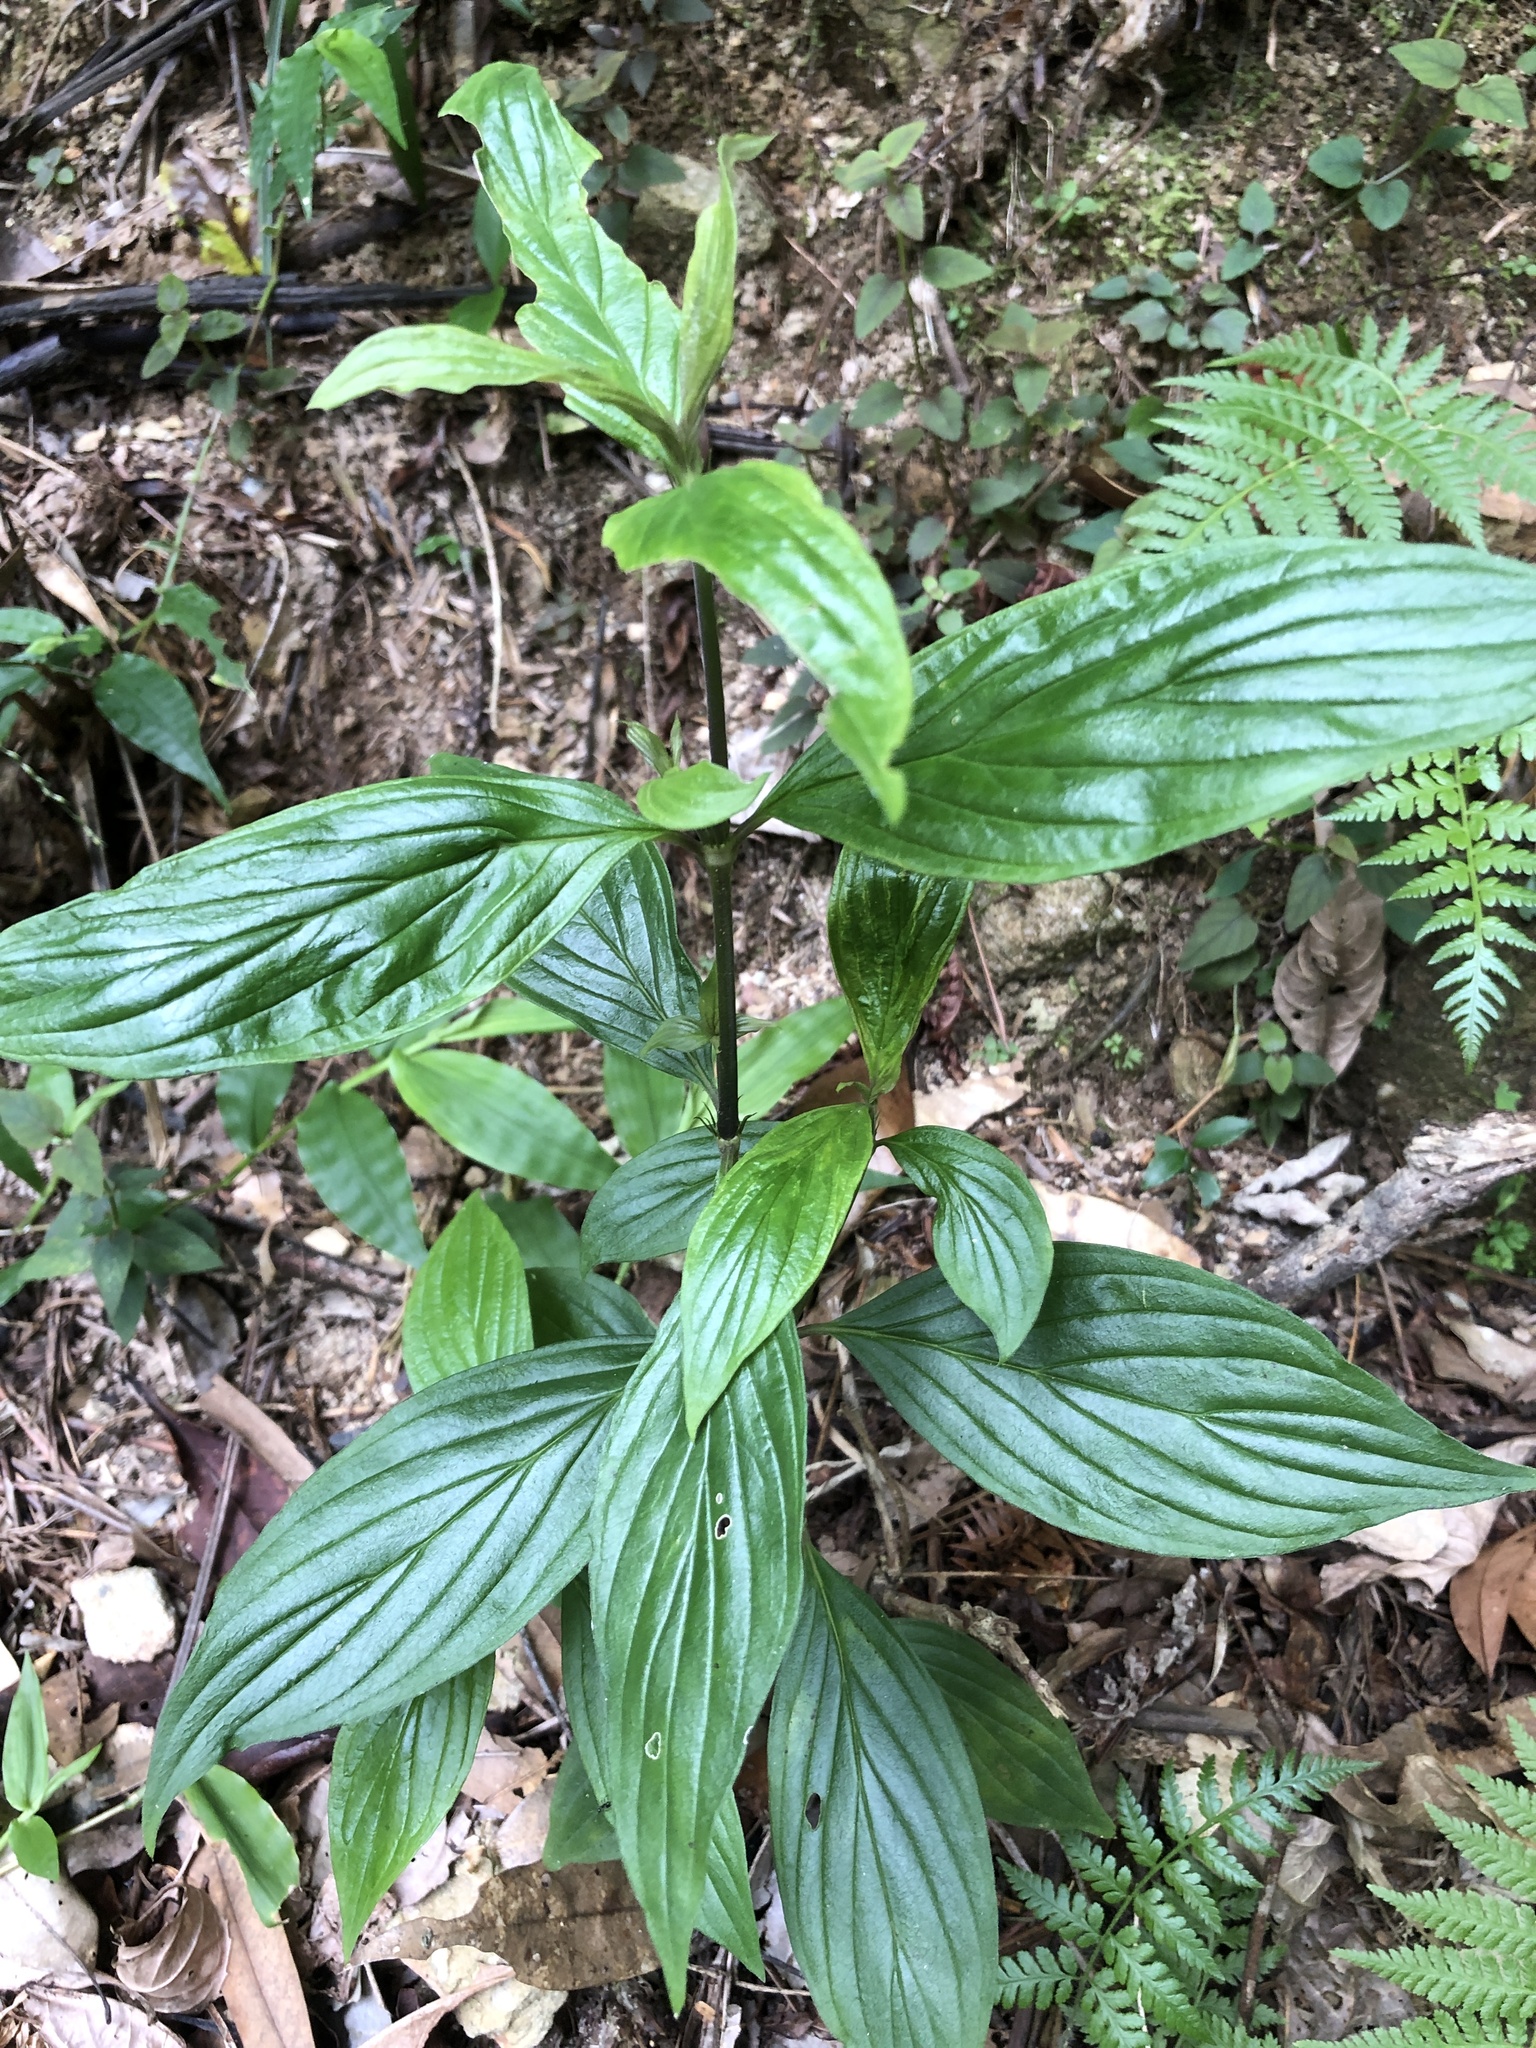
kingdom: Plantae
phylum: Tracheophyta
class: Magnoliopsida
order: Gentianales
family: Rubiaceae
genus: Dimetia
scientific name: Dimetia hedyotidea
